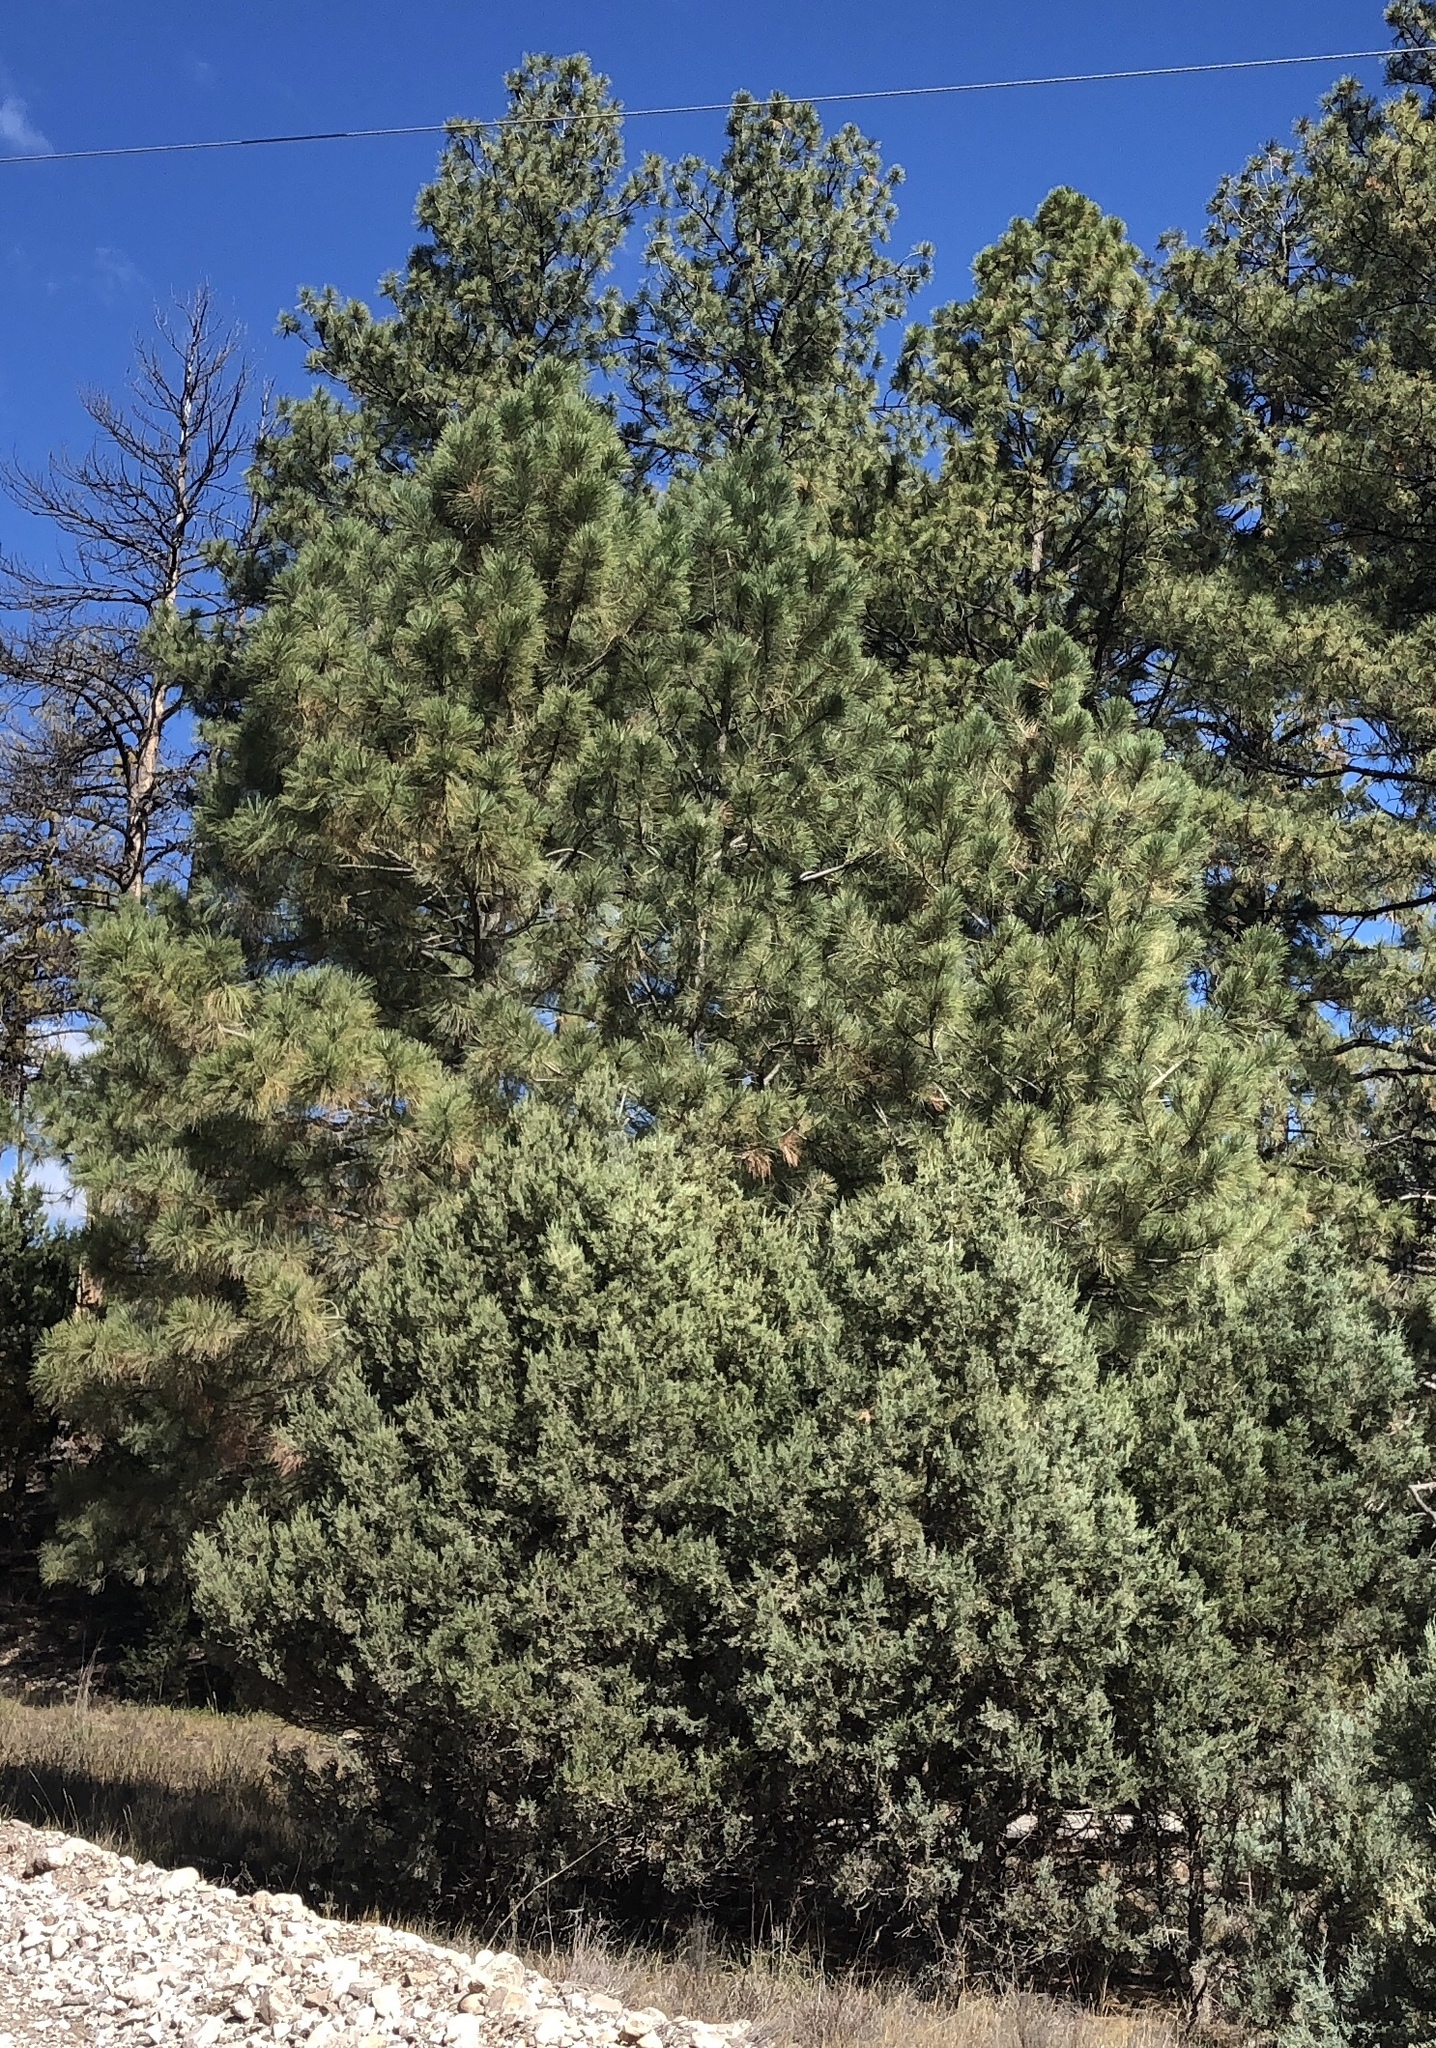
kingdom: Plantae
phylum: Tracheophyta
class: Pinopsida
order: Pinales
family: Pinaceae
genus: Pinus
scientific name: Pinus ponderosa
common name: Western yellow-pine
